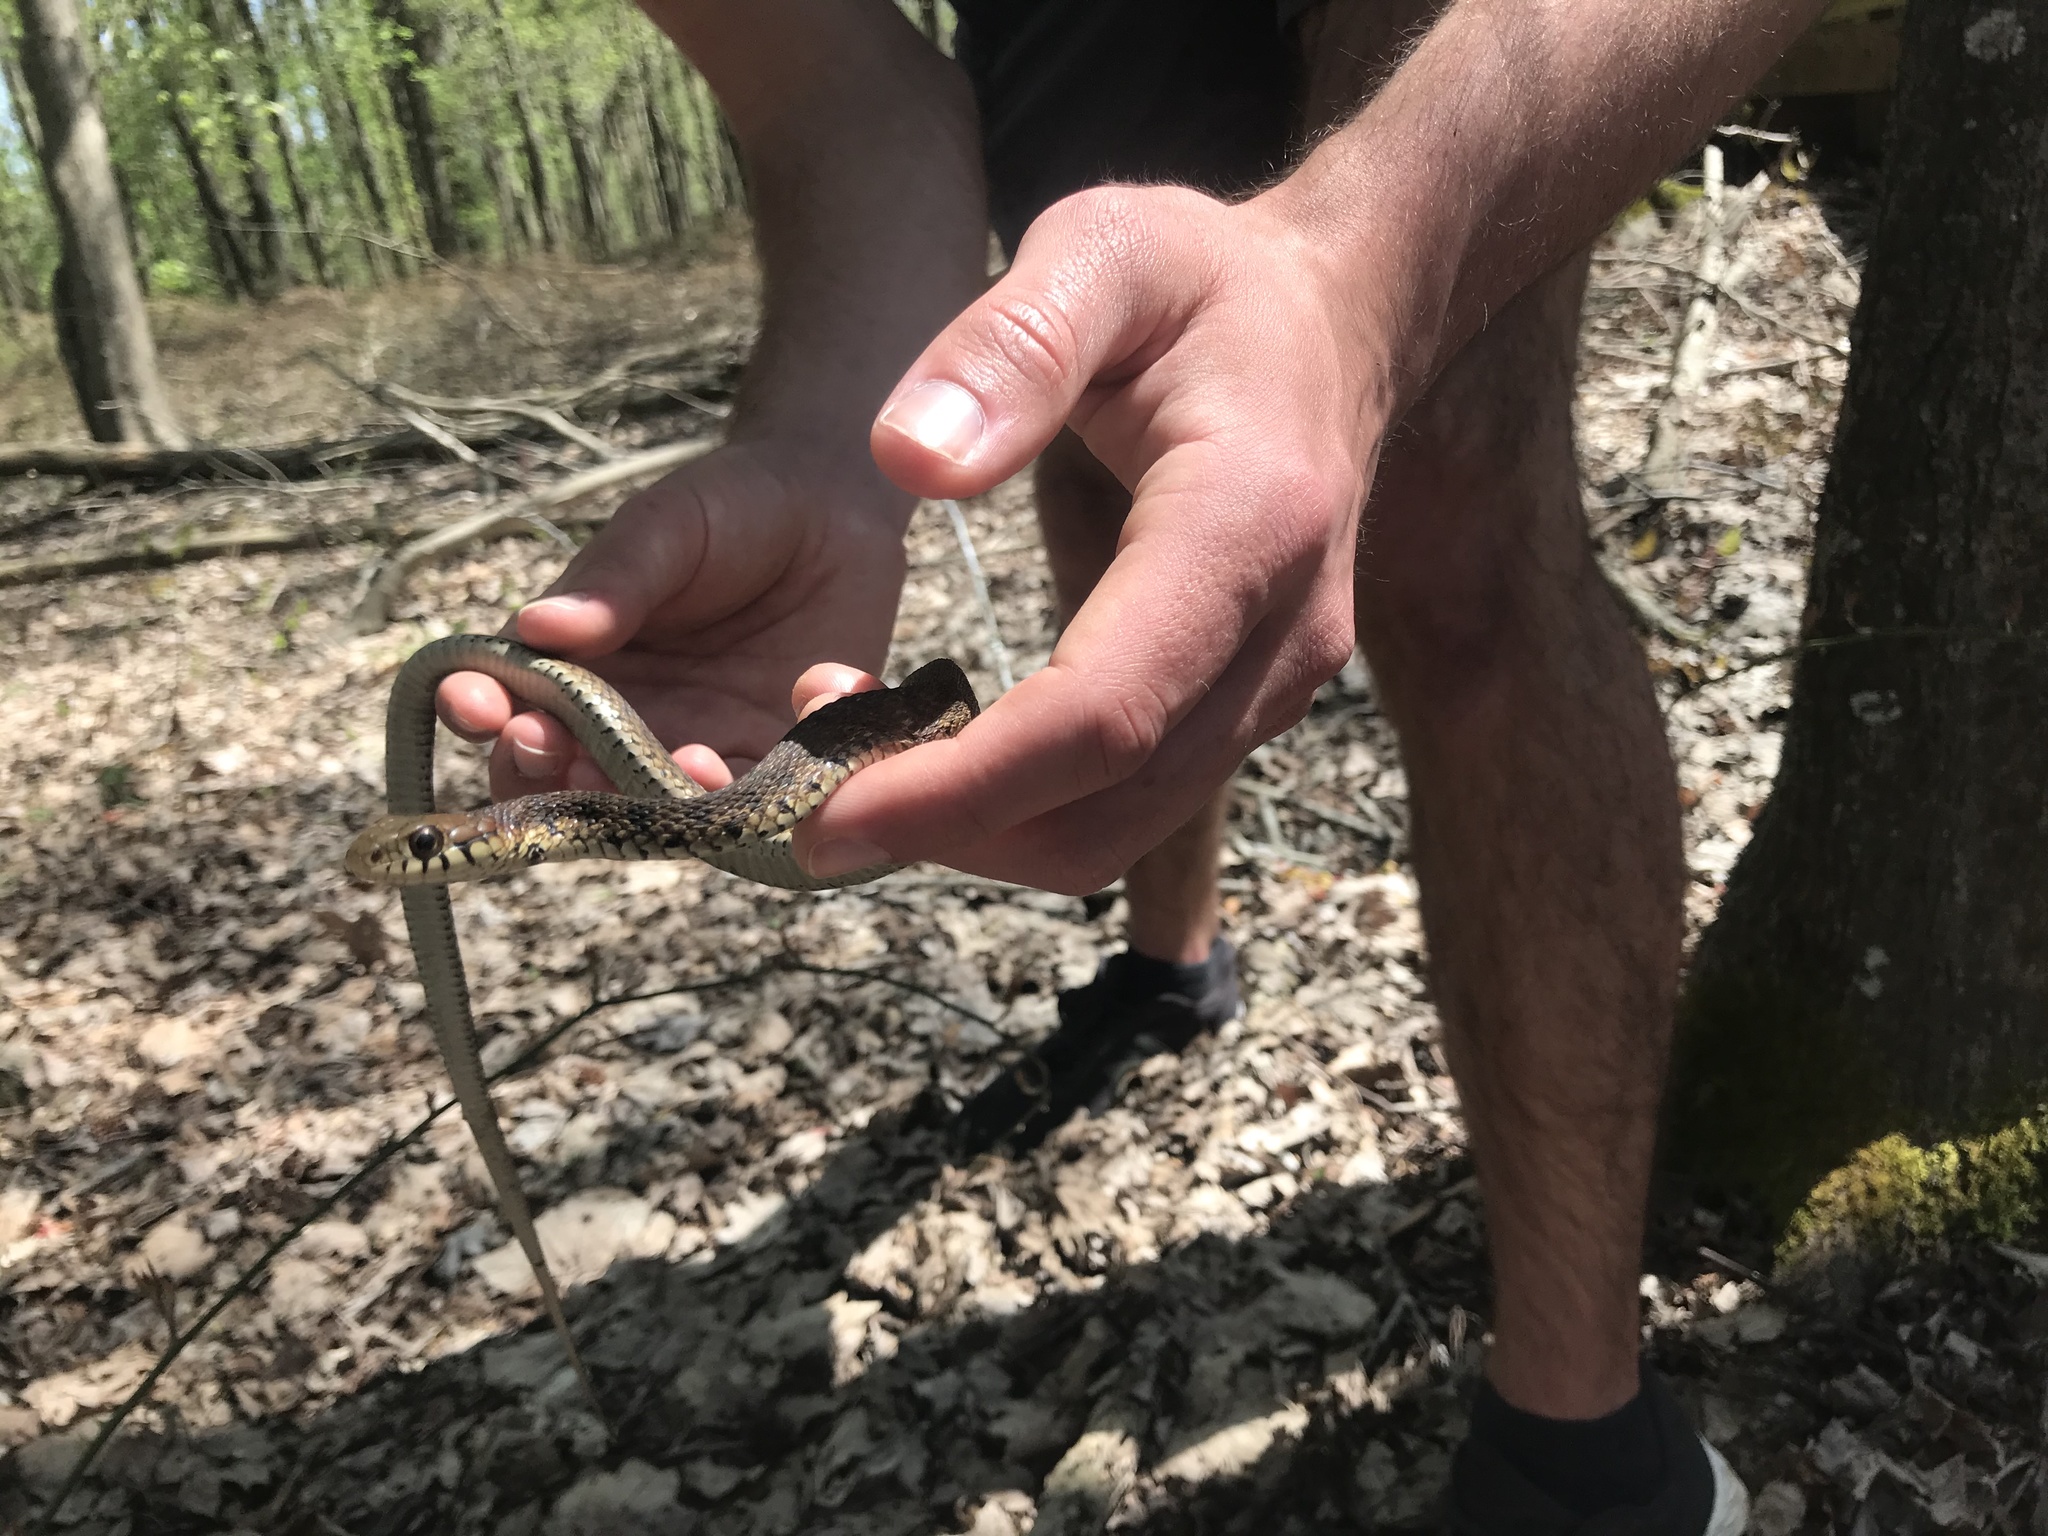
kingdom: Animalia
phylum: Chordata
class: Squamata
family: Colubridae
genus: Thamnophis
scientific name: Thamnophis sirtalis
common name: Common garter snake
